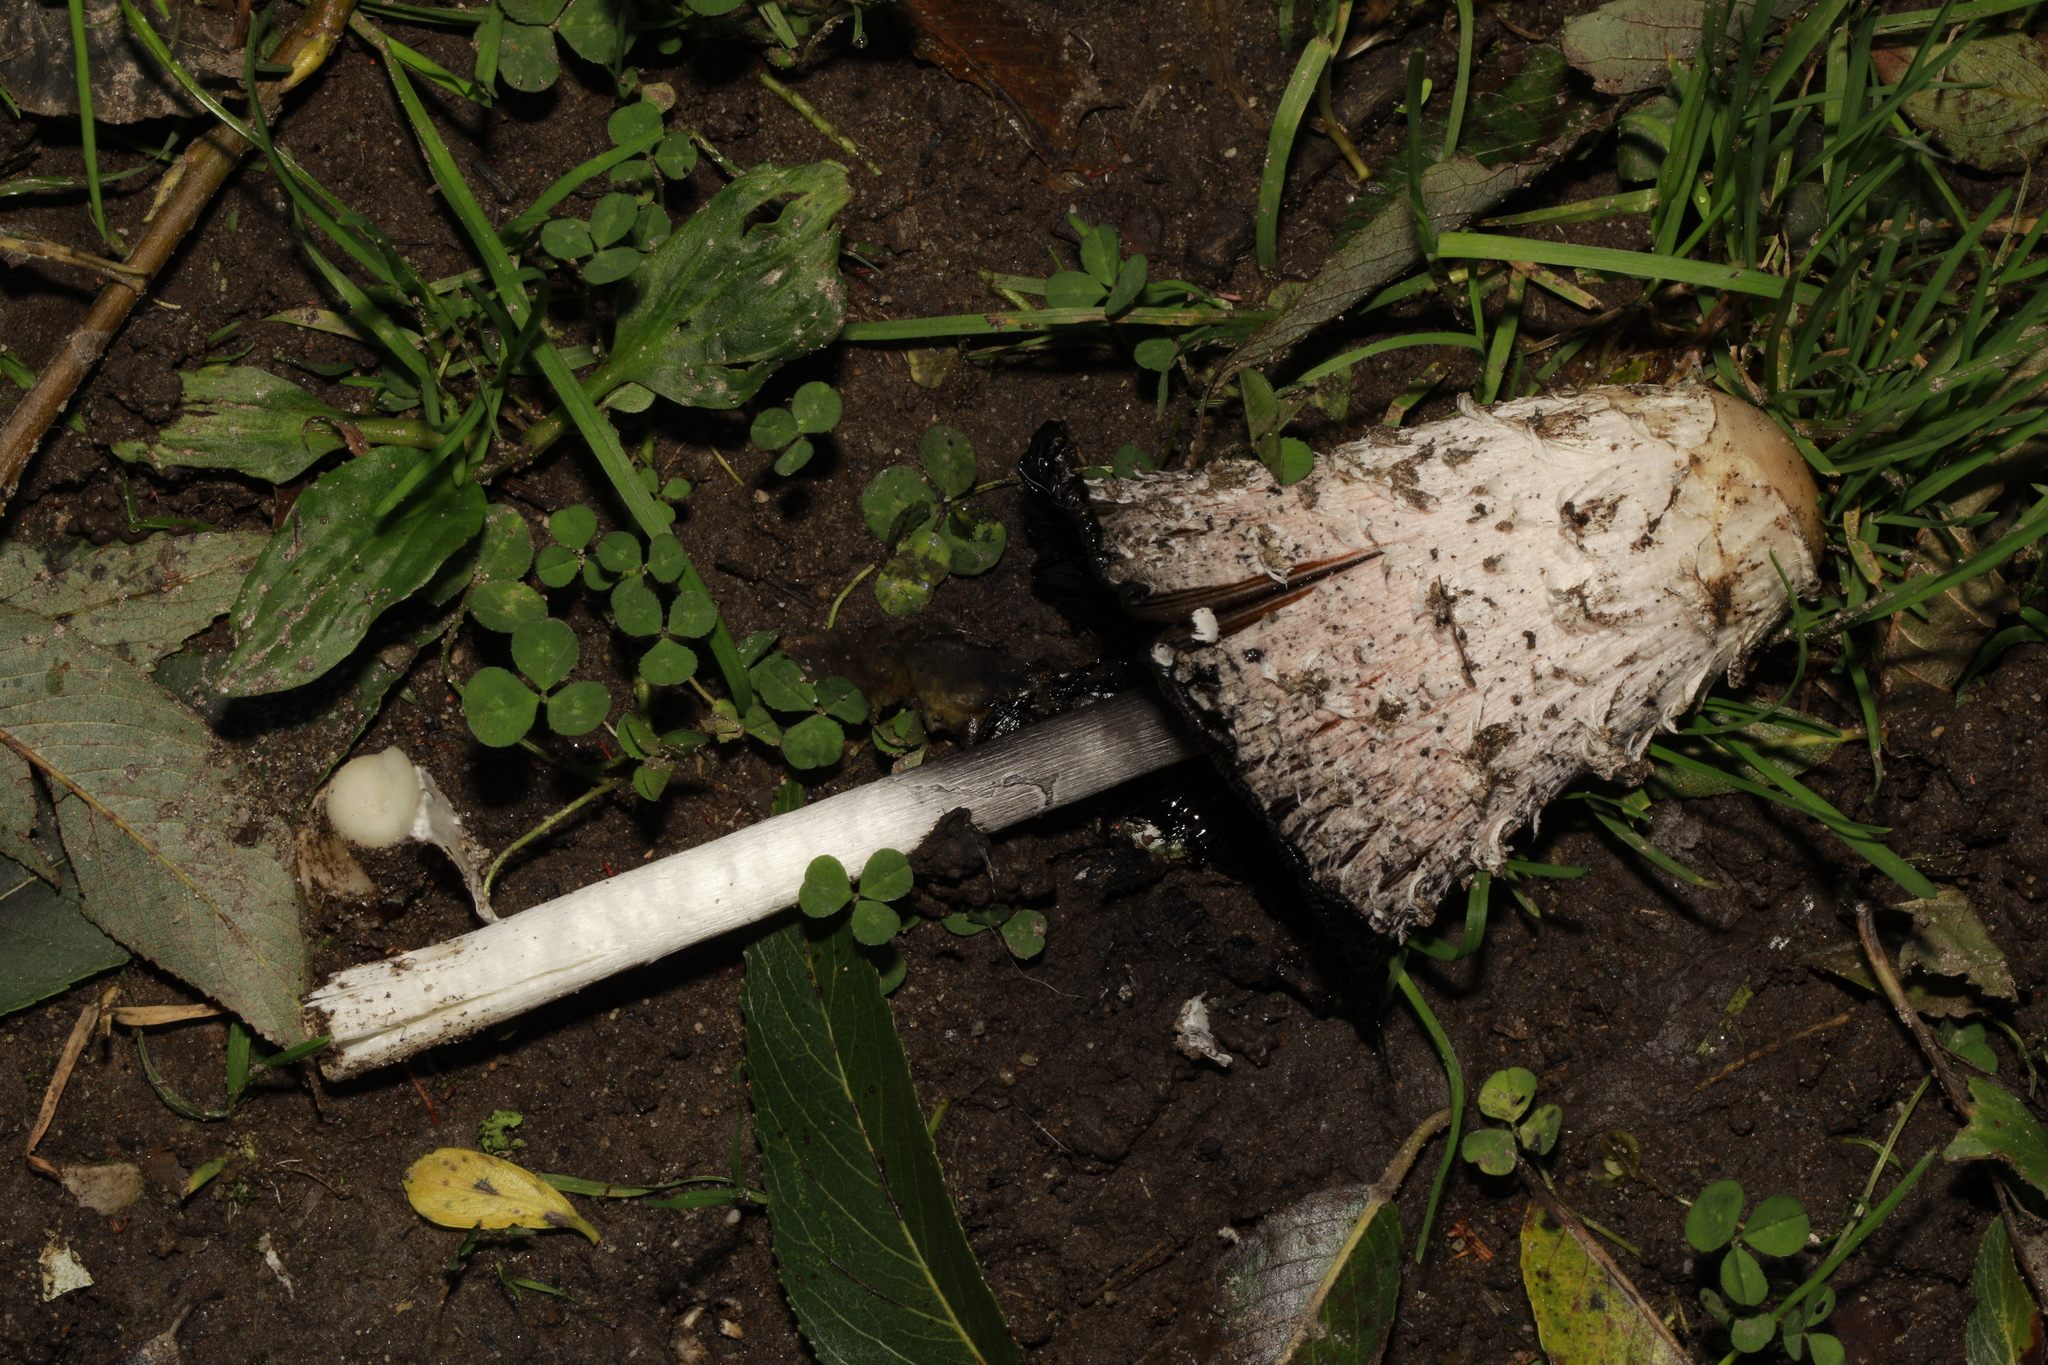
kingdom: Fungi
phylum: Basidiomycota
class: Agaricomycetes
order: Agaricales
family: Agaricaceae
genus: Coprinus
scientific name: Coprinus comatus
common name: Lawyer's wig
